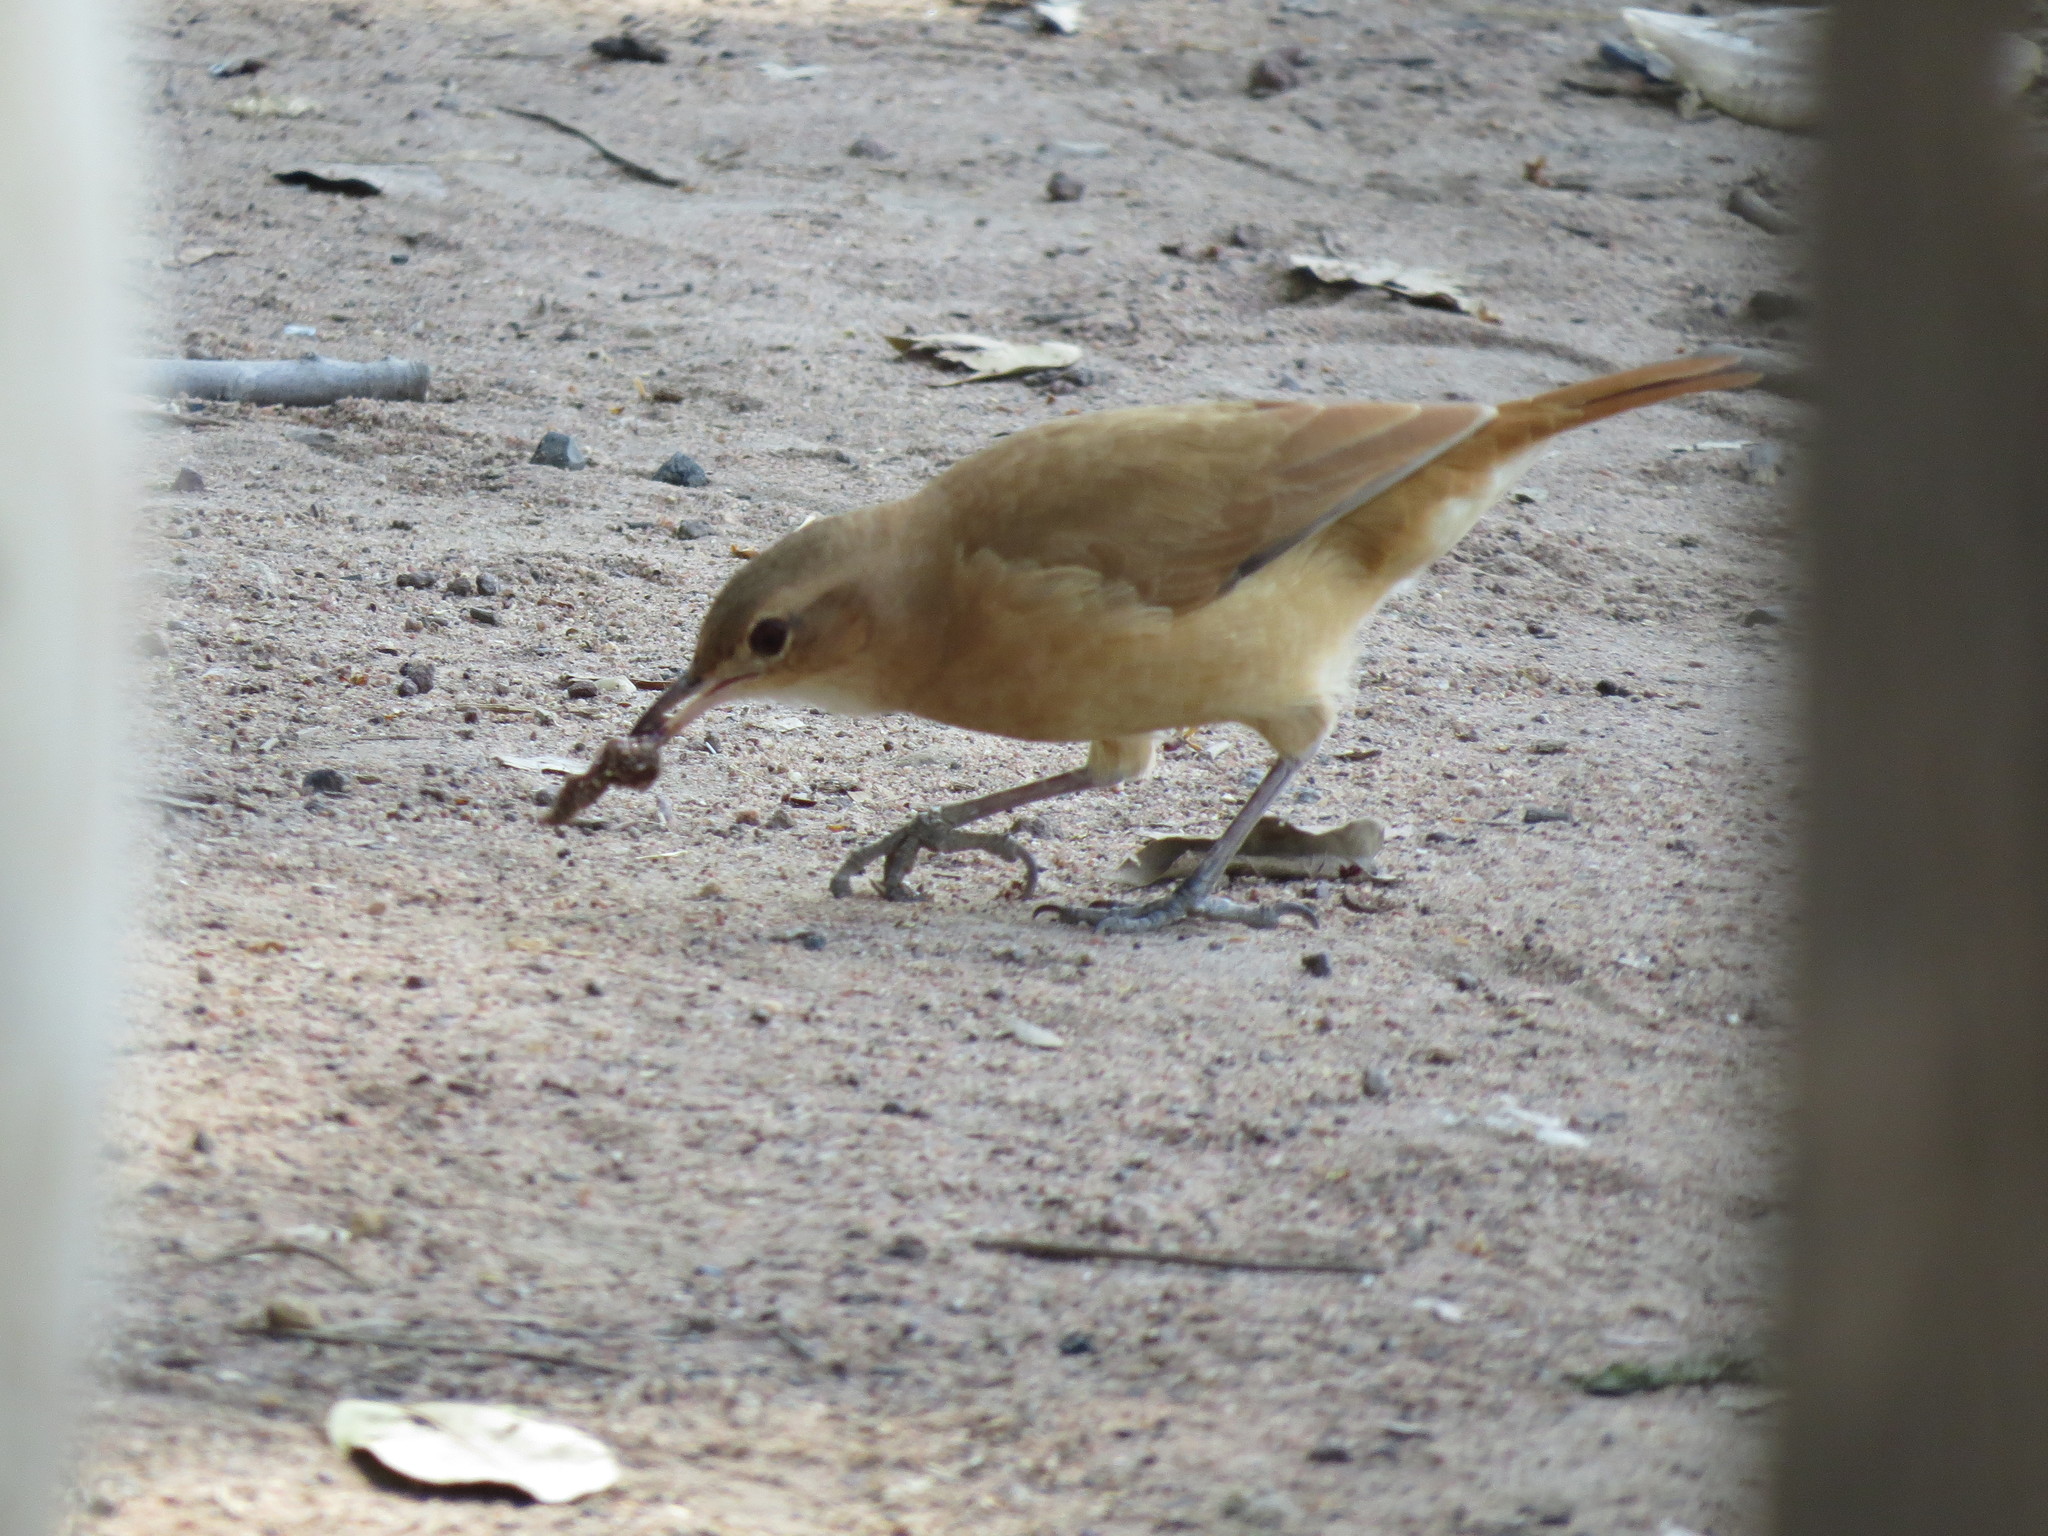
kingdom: Animalia
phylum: Chordata
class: Aves
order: Passeriformes
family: Furnariidae
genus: Furnarius
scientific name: Furnarius rufus
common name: Rufous hornero
